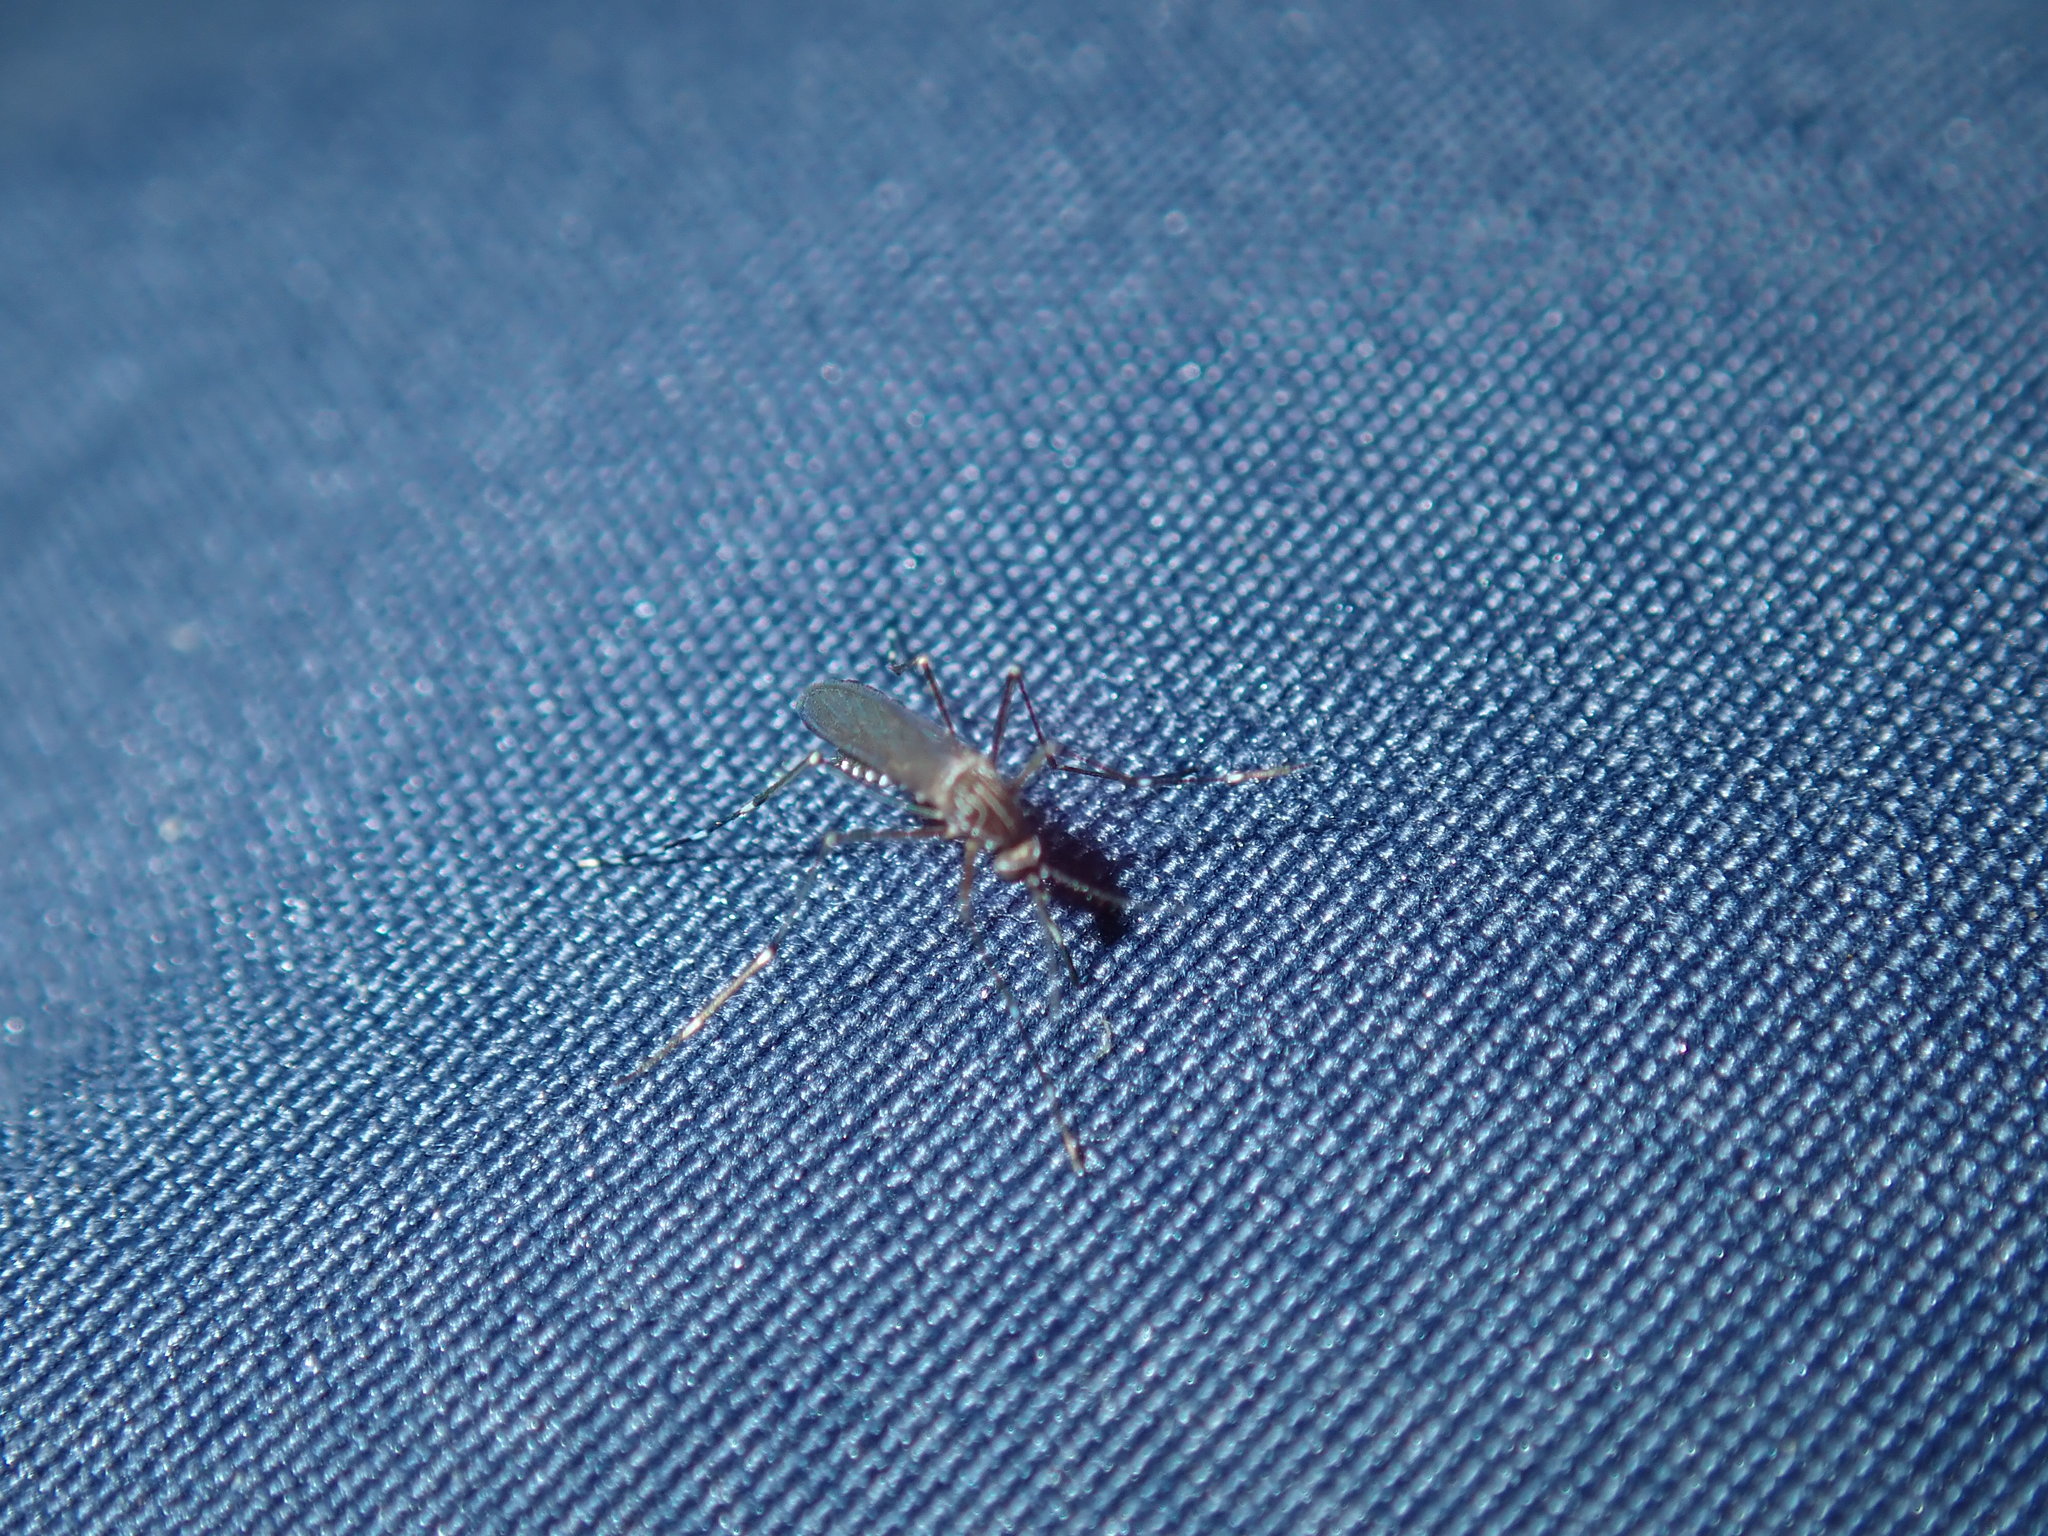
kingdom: Animalia
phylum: Arthropoda
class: Insecta
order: Diptera
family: Culicidae
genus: Aedes
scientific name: Aedes notoscriptus
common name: Australian backyard mosquito
